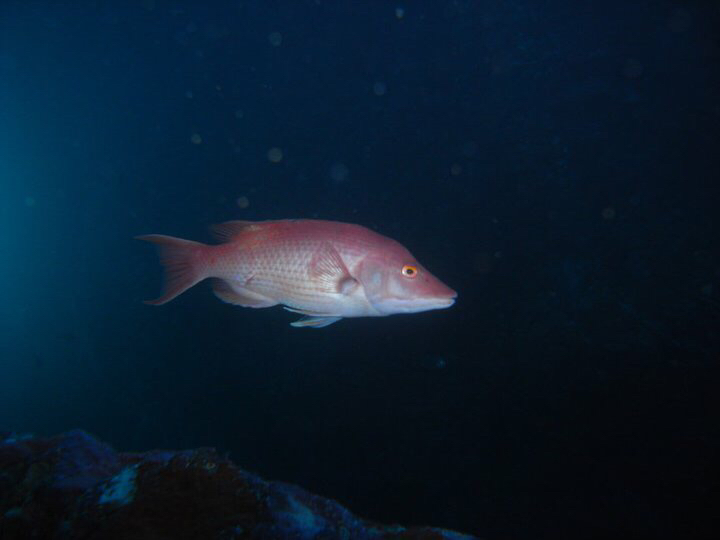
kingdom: Animalia
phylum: Chordata
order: Perciformes
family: Labridae
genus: Bodianus
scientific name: Bodianus unimaculatus
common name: Pigfish
